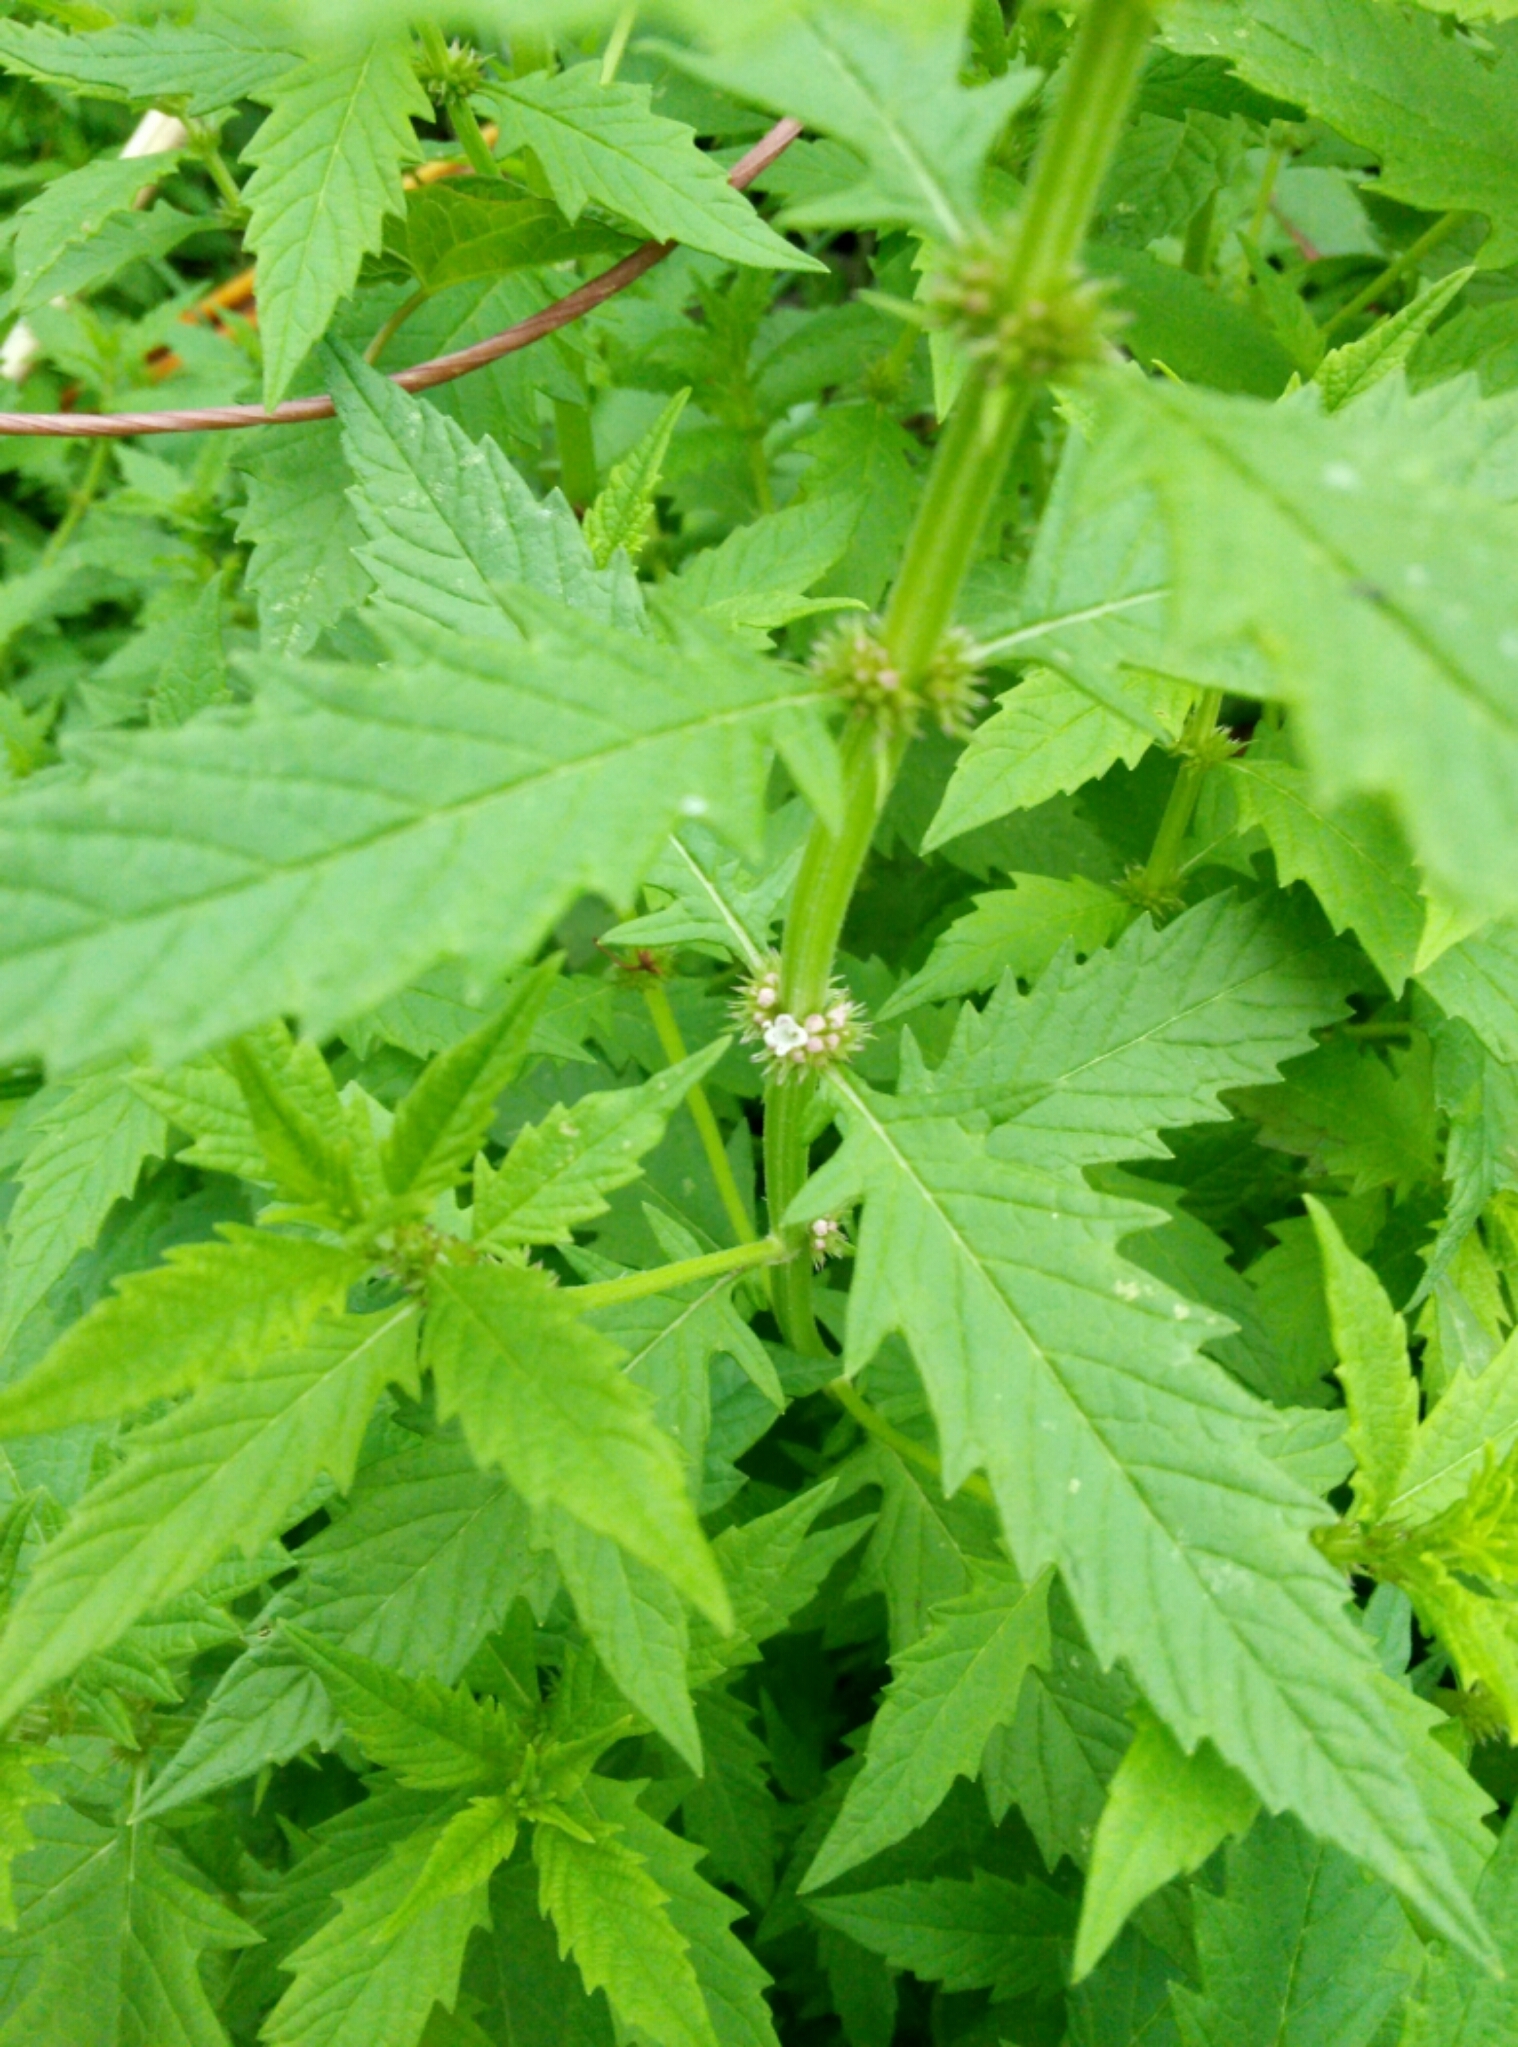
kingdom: Plantae
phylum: Tracheophyta
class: Magnoliopsida
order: Saxifragales
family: Haloragaceae
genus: Haloragis
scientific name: Haloragis erecta
